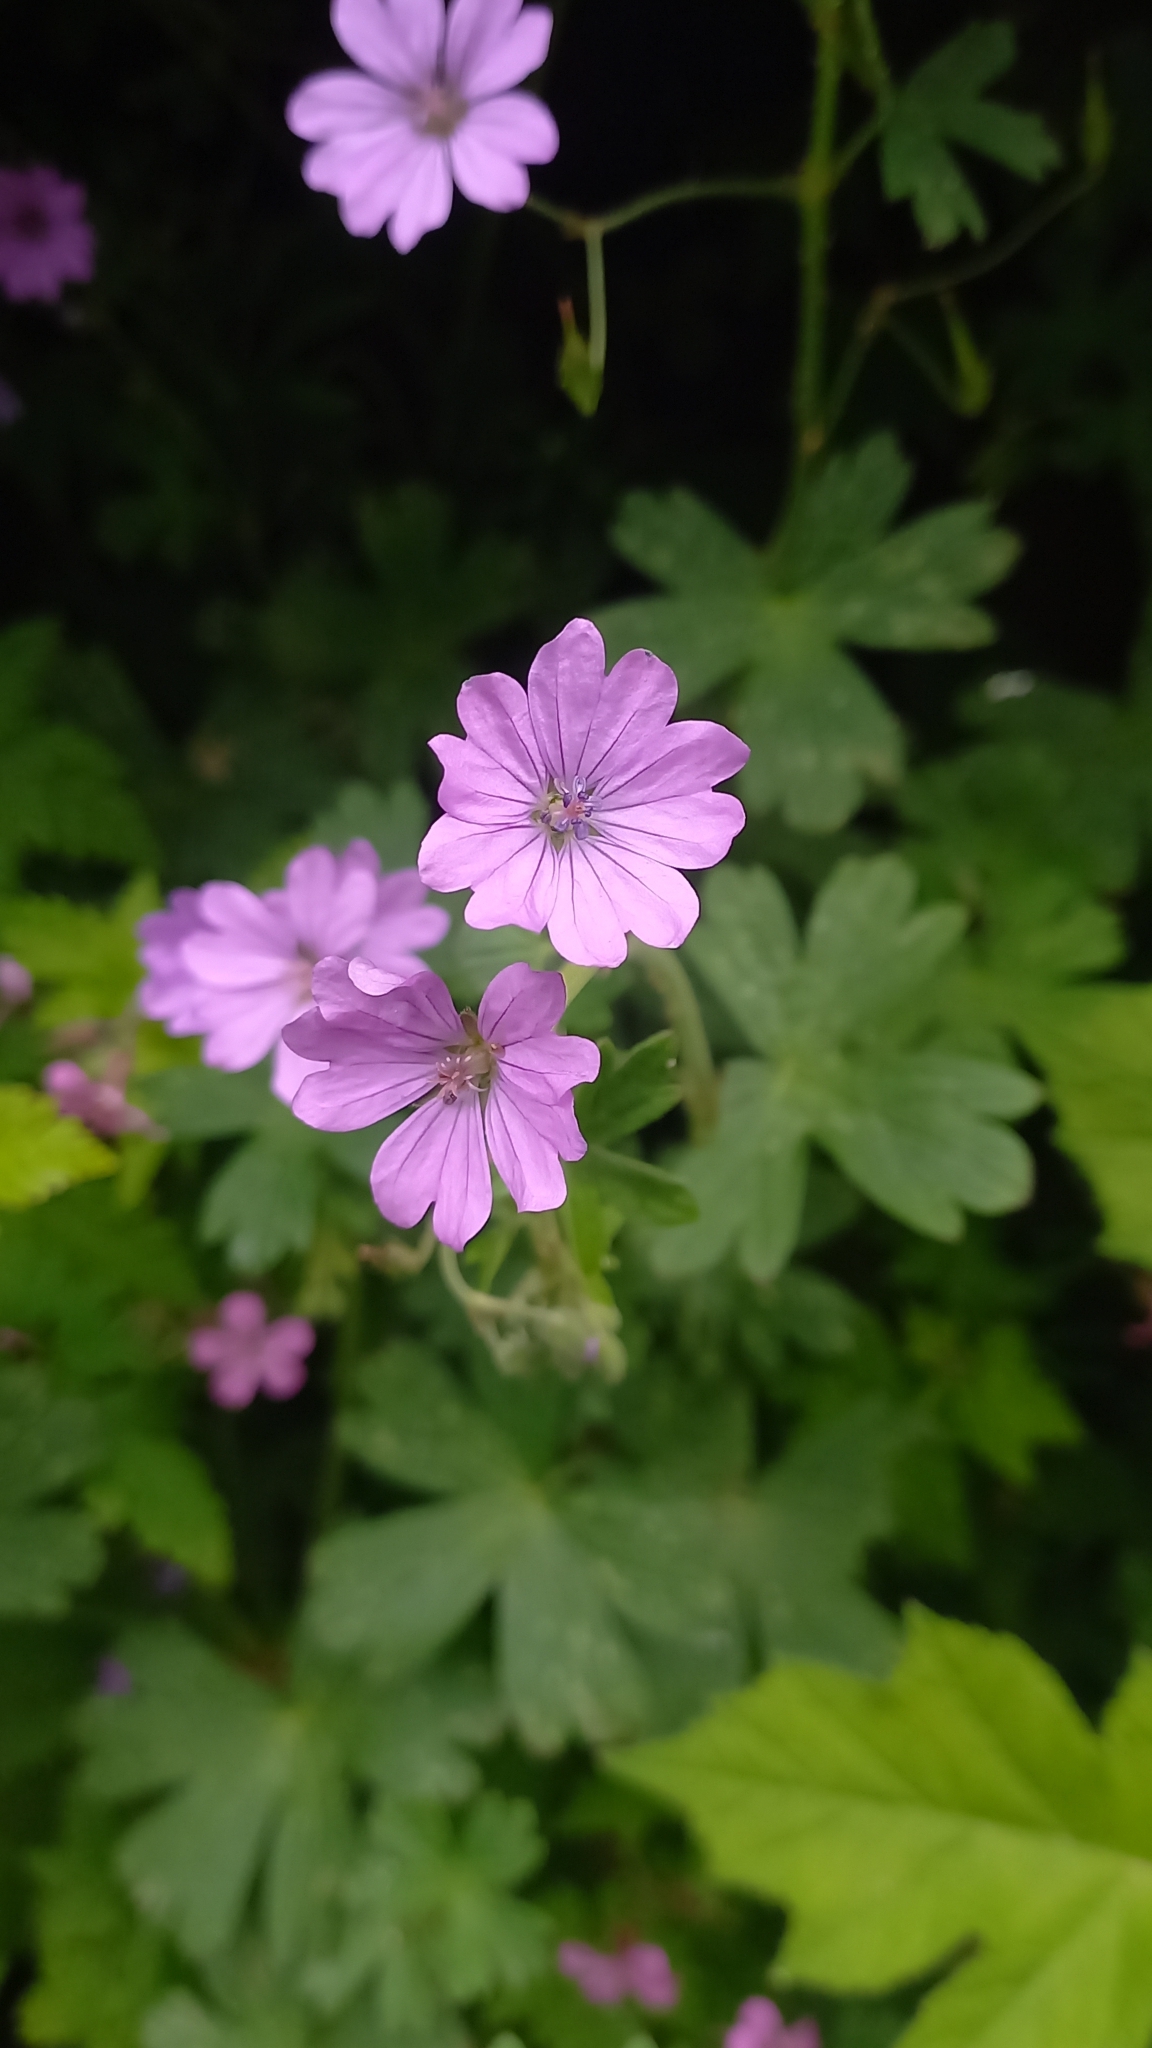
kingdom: Plantae
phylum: Tracheophyta
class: Magnoliopsida
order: Geraniales
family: Geraniaceae
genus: Geranium
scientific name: Geranium pyrenaicum
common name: Hedgerow crane's-bill
